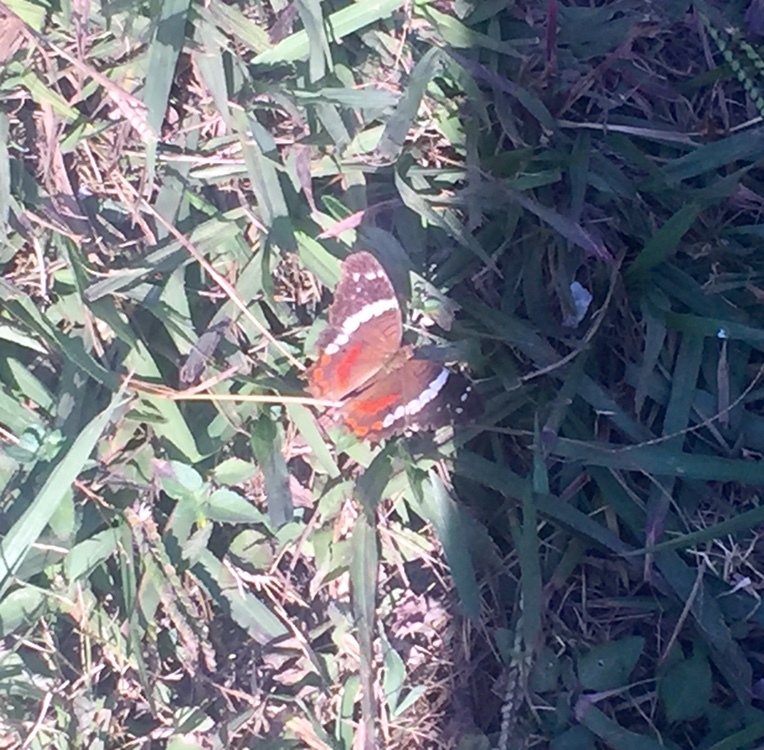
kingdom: Animalia
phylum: Arthropoda
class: Insecta
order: Lepidoptera
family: Nymphalidae
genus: Anartia
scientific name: Anartia fatima
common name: Banded peacock
